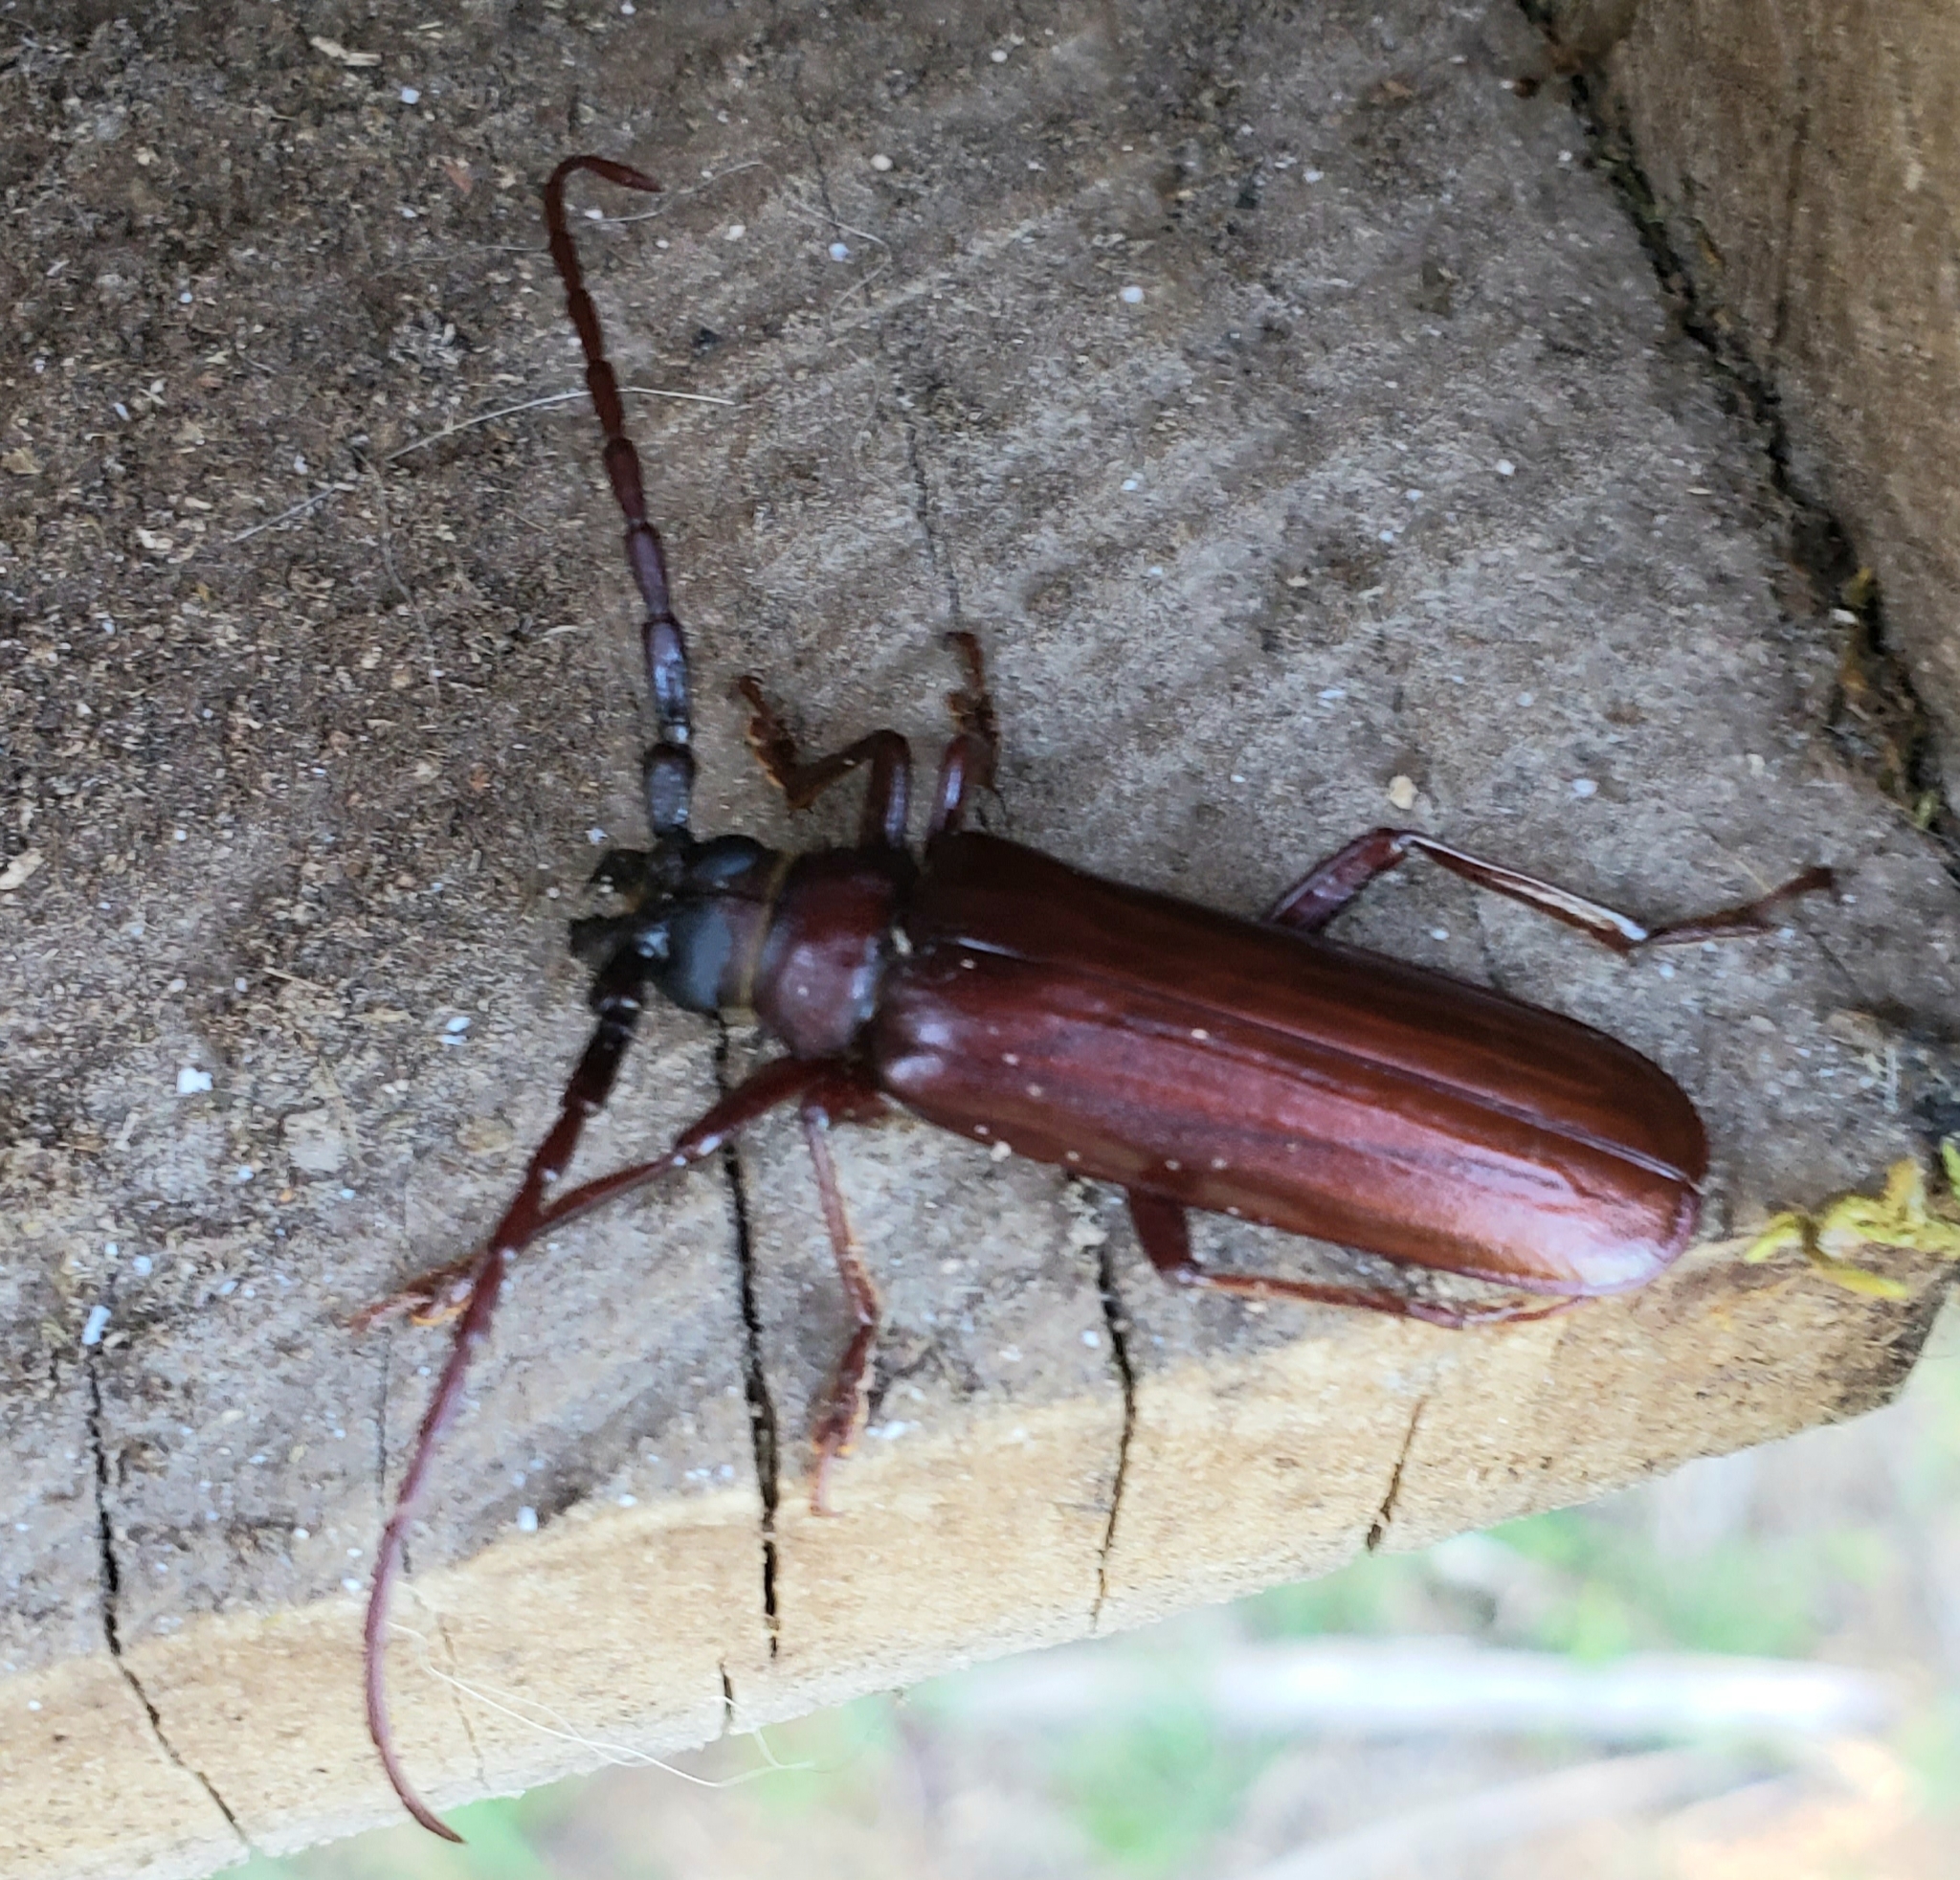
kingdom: Animalia
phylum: Arthropoda
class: Insecta
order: Coleoptera
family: Cerambycidae
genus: Orthosoma
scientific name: Orthosoma brunneum
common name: Brown prionid beetle
